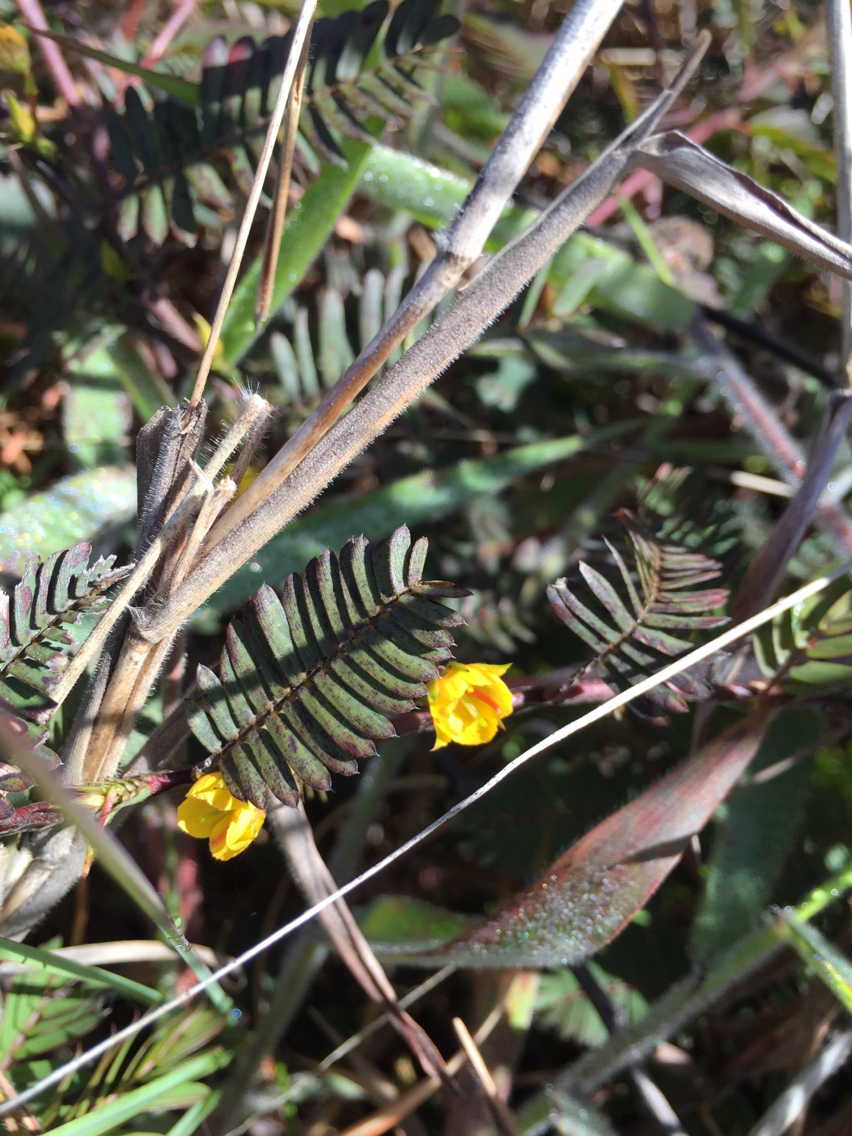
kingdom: Plantae
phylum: Tracheophyta
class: Magnoliopsida
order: Fabales
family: Fabaceae
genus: Chamaecrista
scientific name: Chamaecrista nictitans
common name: Sensitive cassia
